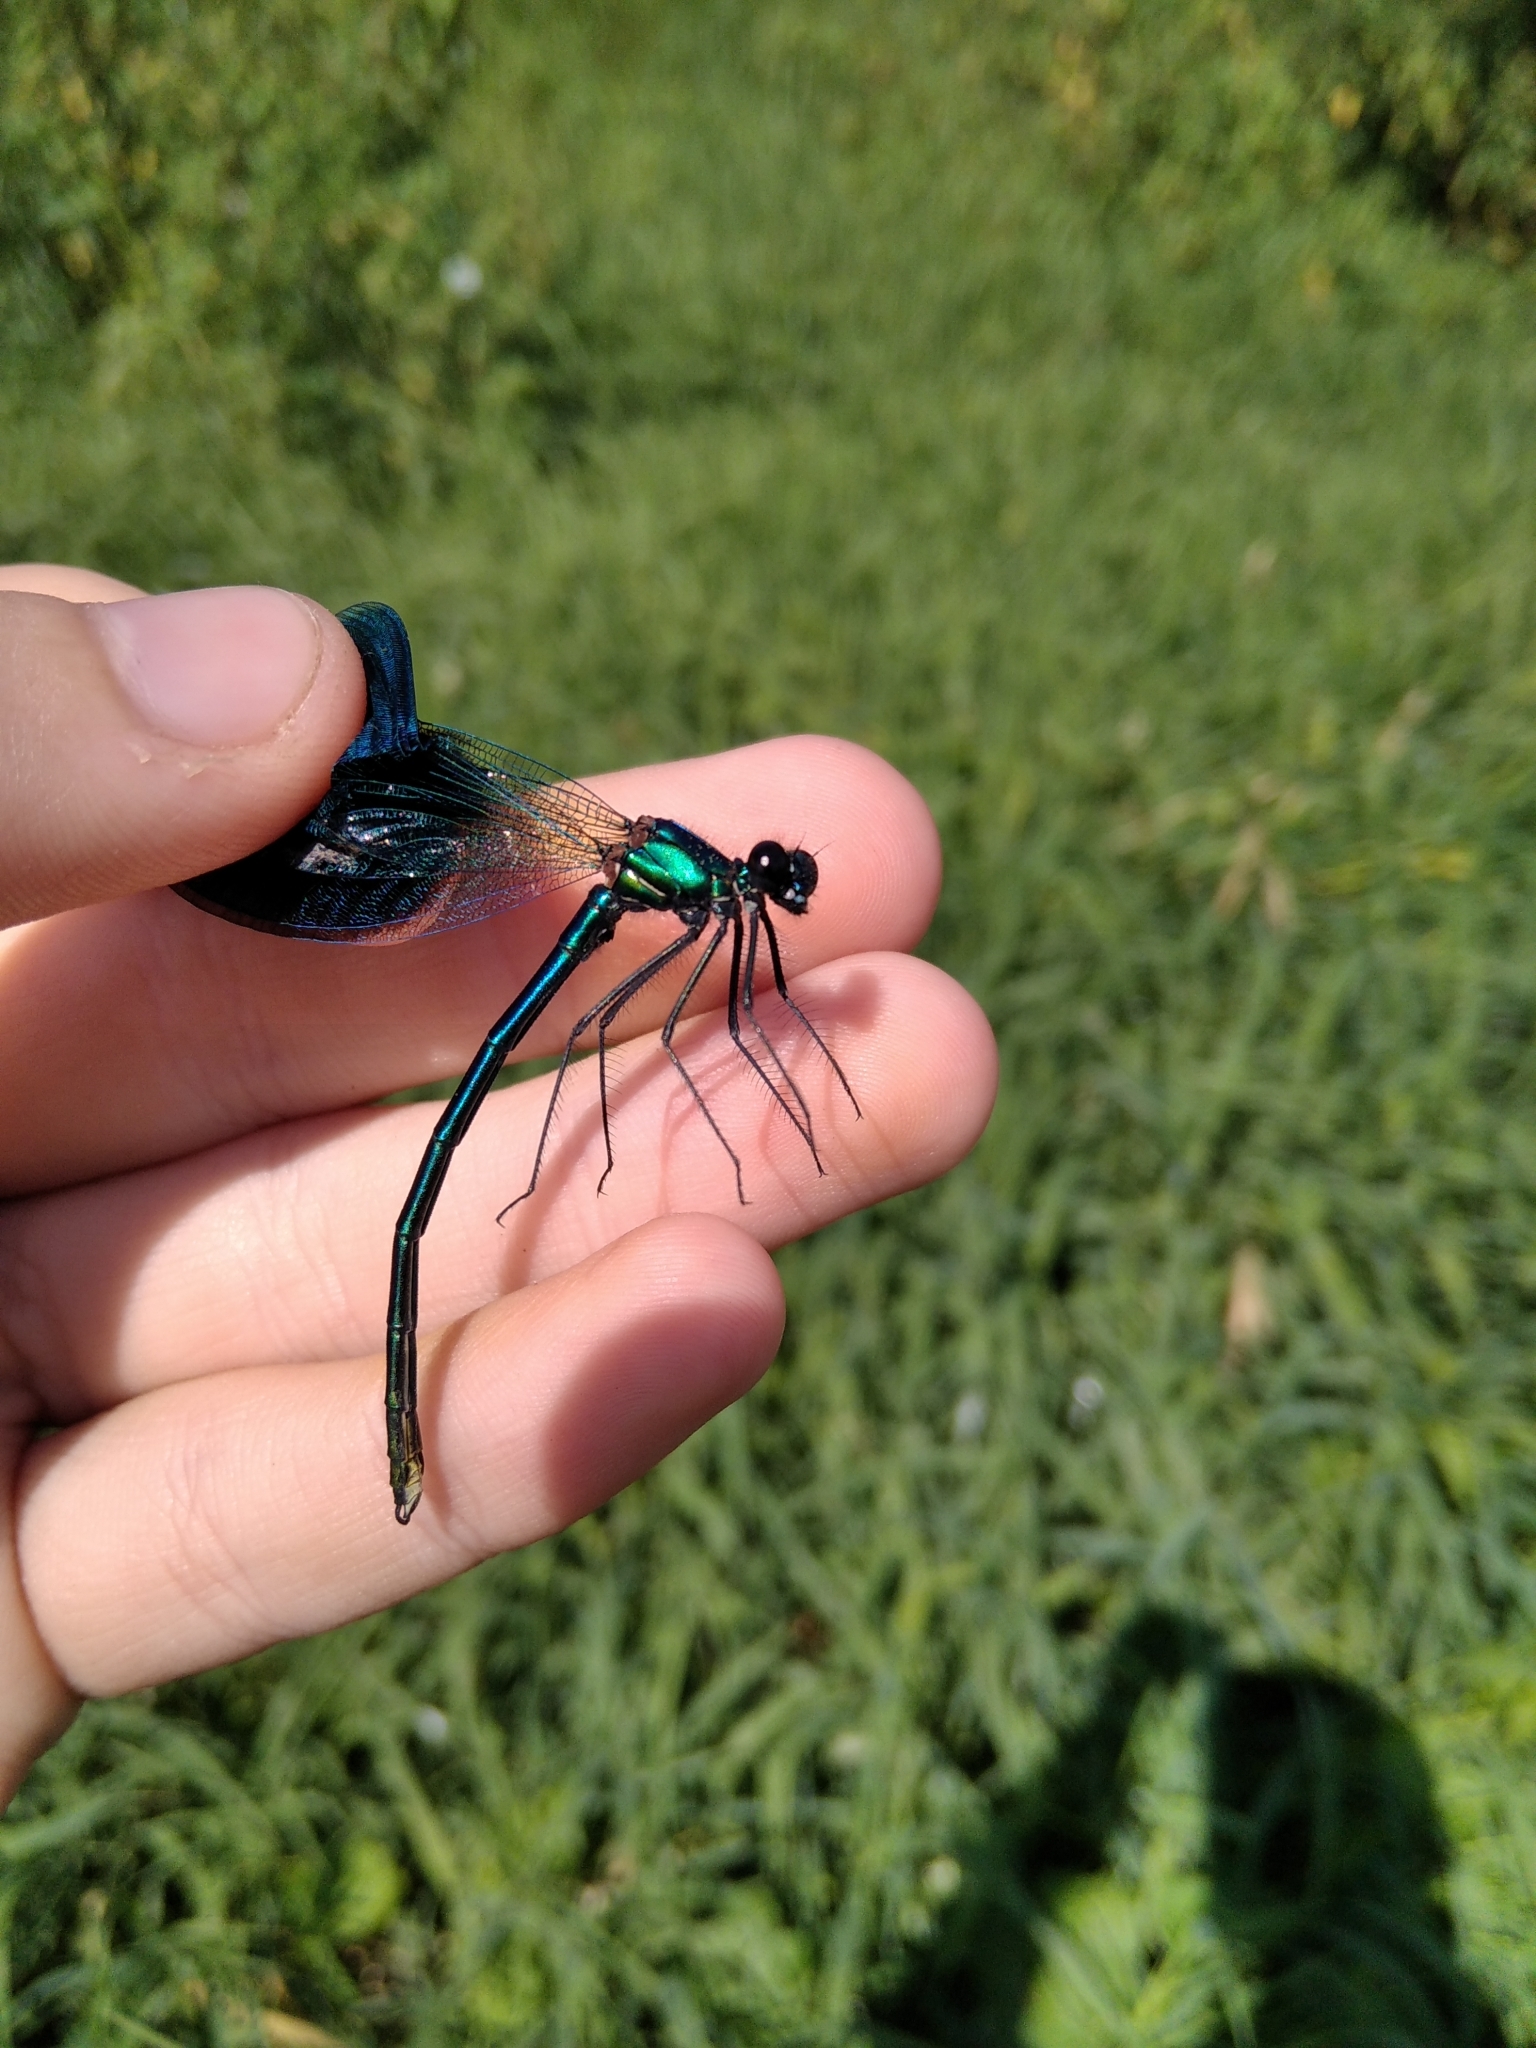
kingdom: Animalia
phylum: Arthropoda
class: Insecta
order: Odonata
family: Calopterygidae
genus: Calopteryx
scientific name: Calopteryx splendens
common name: Banded demoiselle
